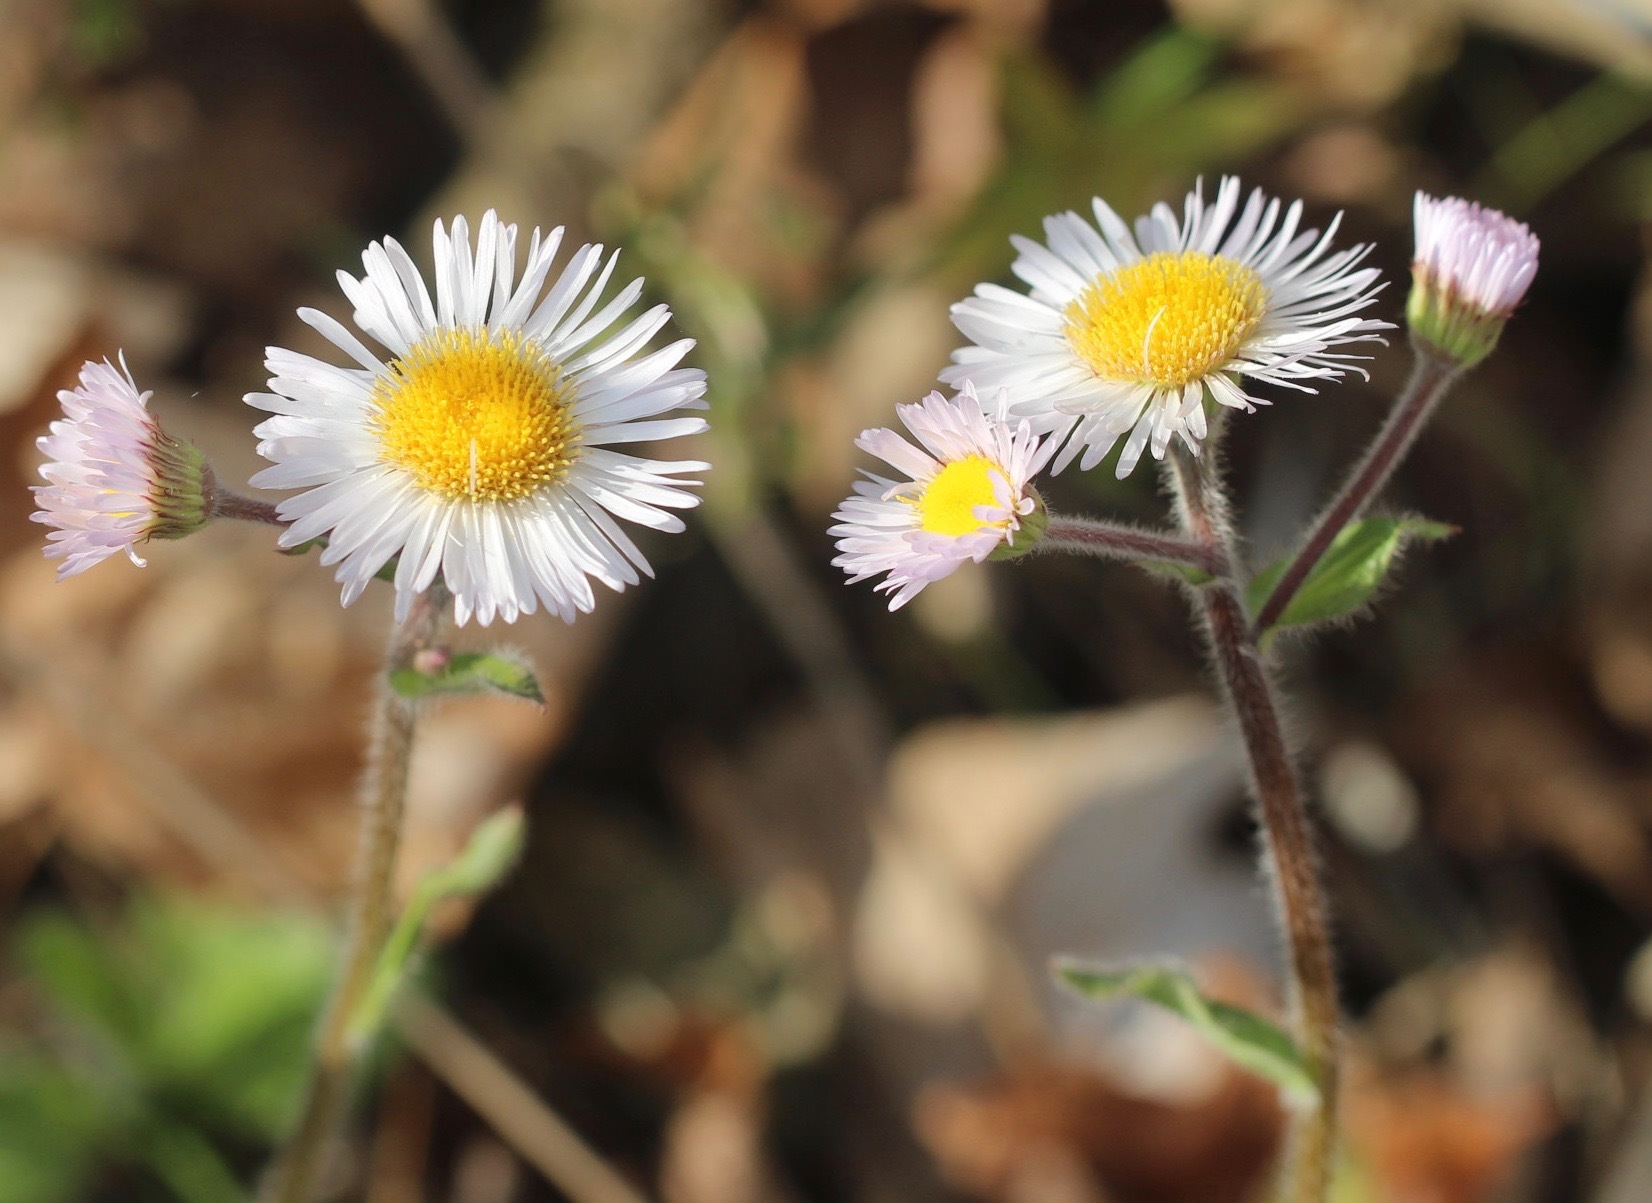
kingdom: Plantae
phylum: Tracheophyta
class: Magnoliopsida
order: Asterales
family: Asteraceae
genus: Erigeron
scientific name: Erigeron pulchellus
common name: Hairy fleabane
